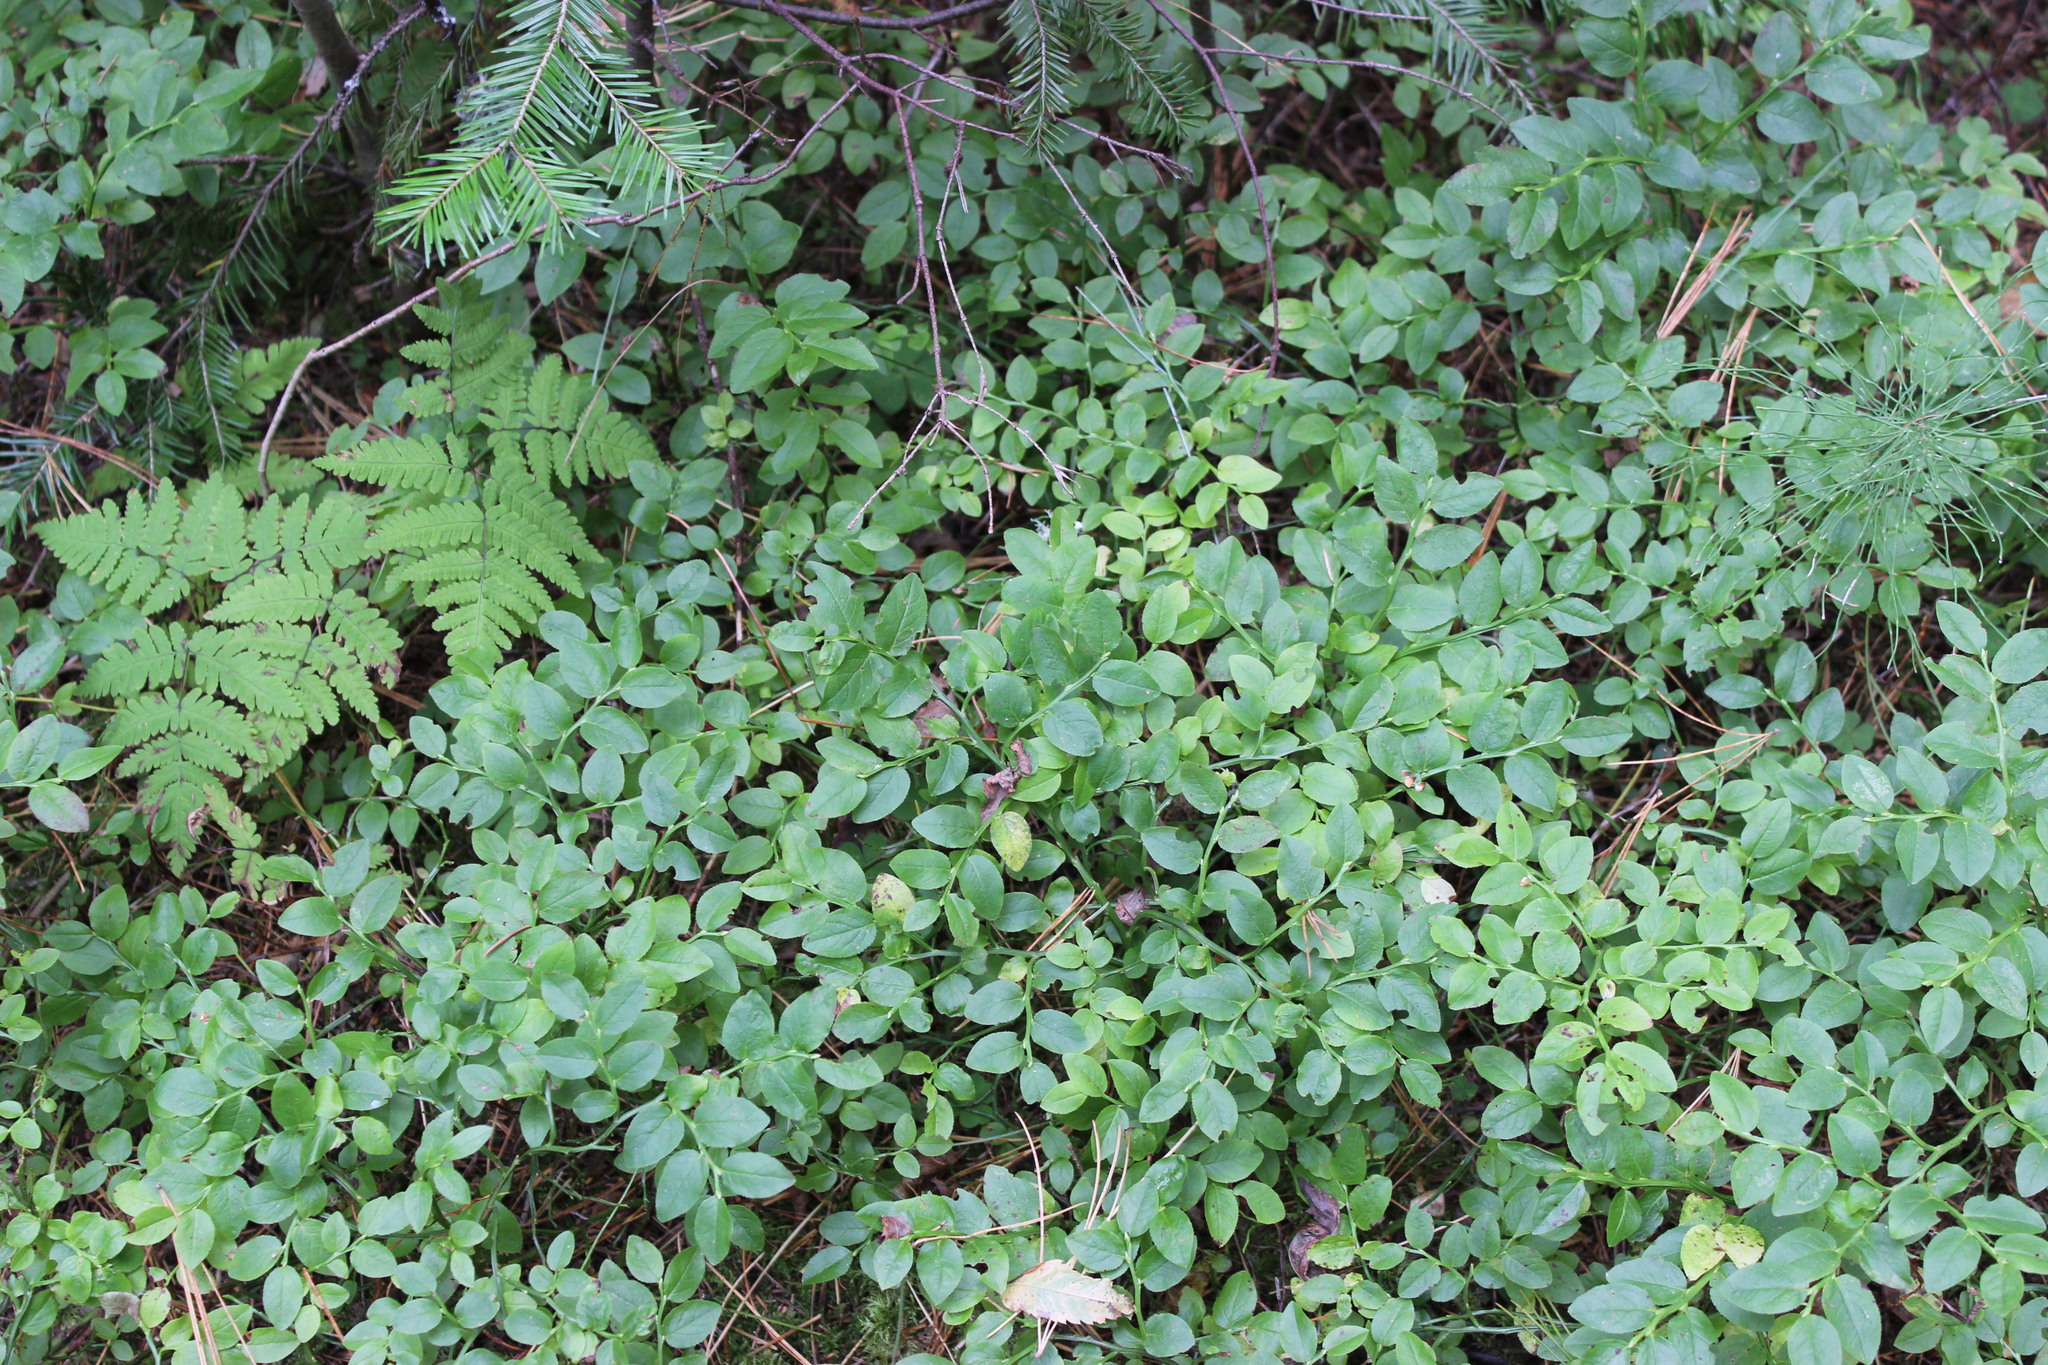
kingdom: Plantae
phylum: Tracheophyta
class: Magnoliopsida
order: Ericales
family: Ericaceae
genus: Vaccinium
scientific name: Vaccinium myrtillus
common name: Bilberry
